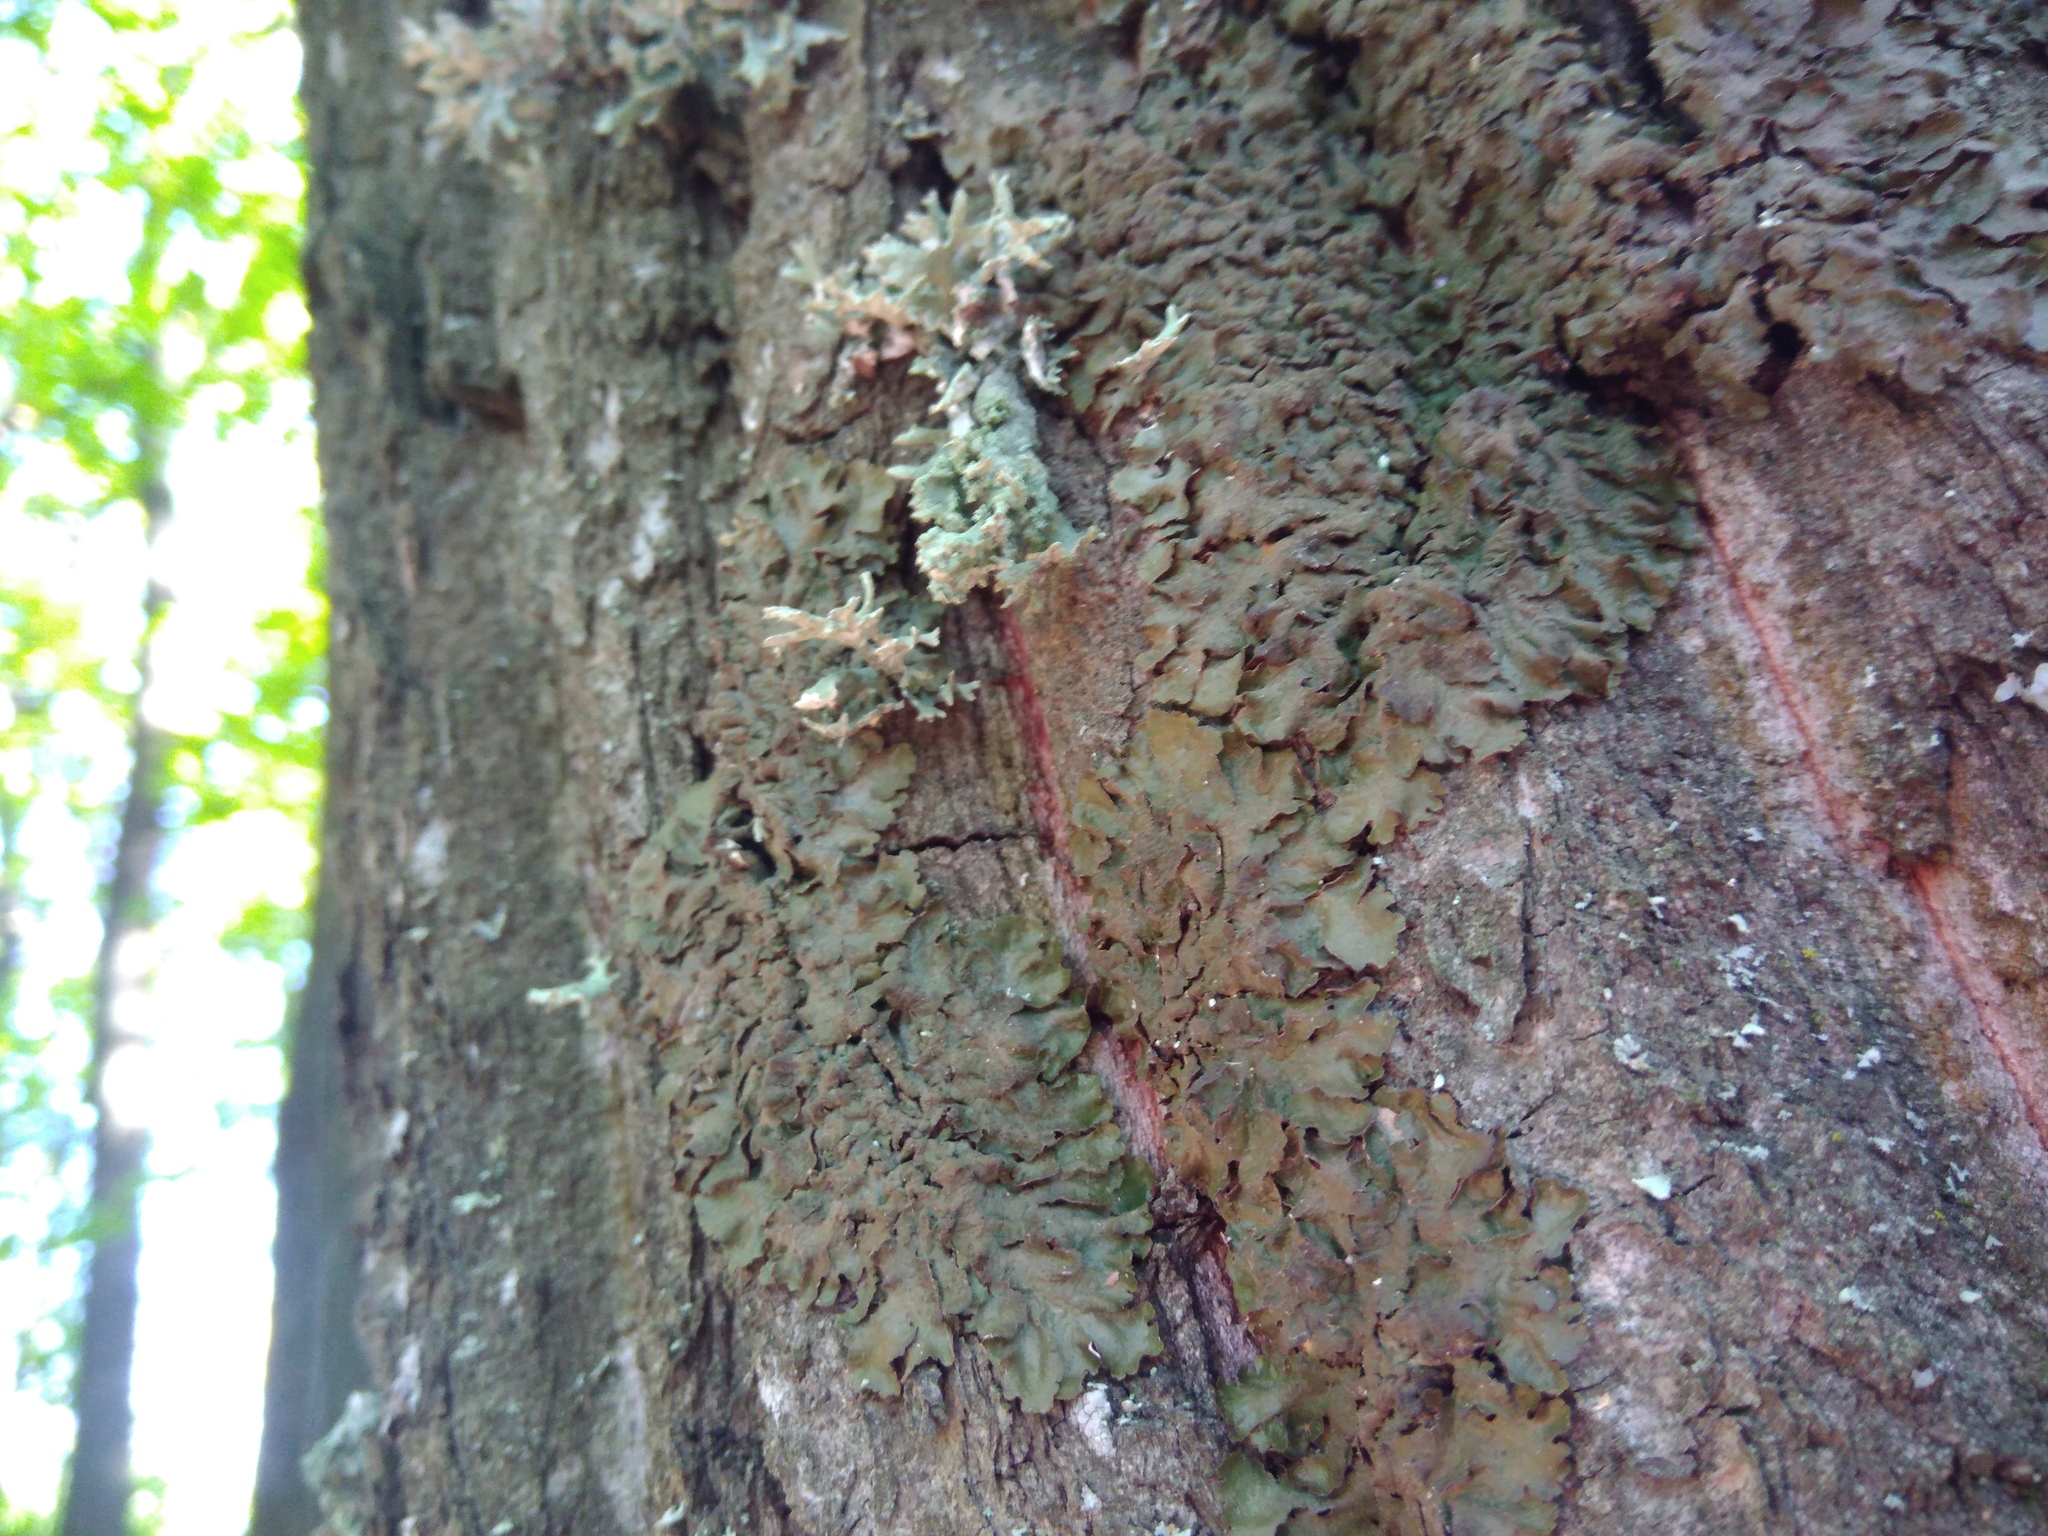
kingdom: Fungi
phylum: Ascomycota
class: Lecanoromycetes
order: Lecanorales
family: Parmeliaceae
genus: Melanelixia
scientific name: Melanelixia glabra
